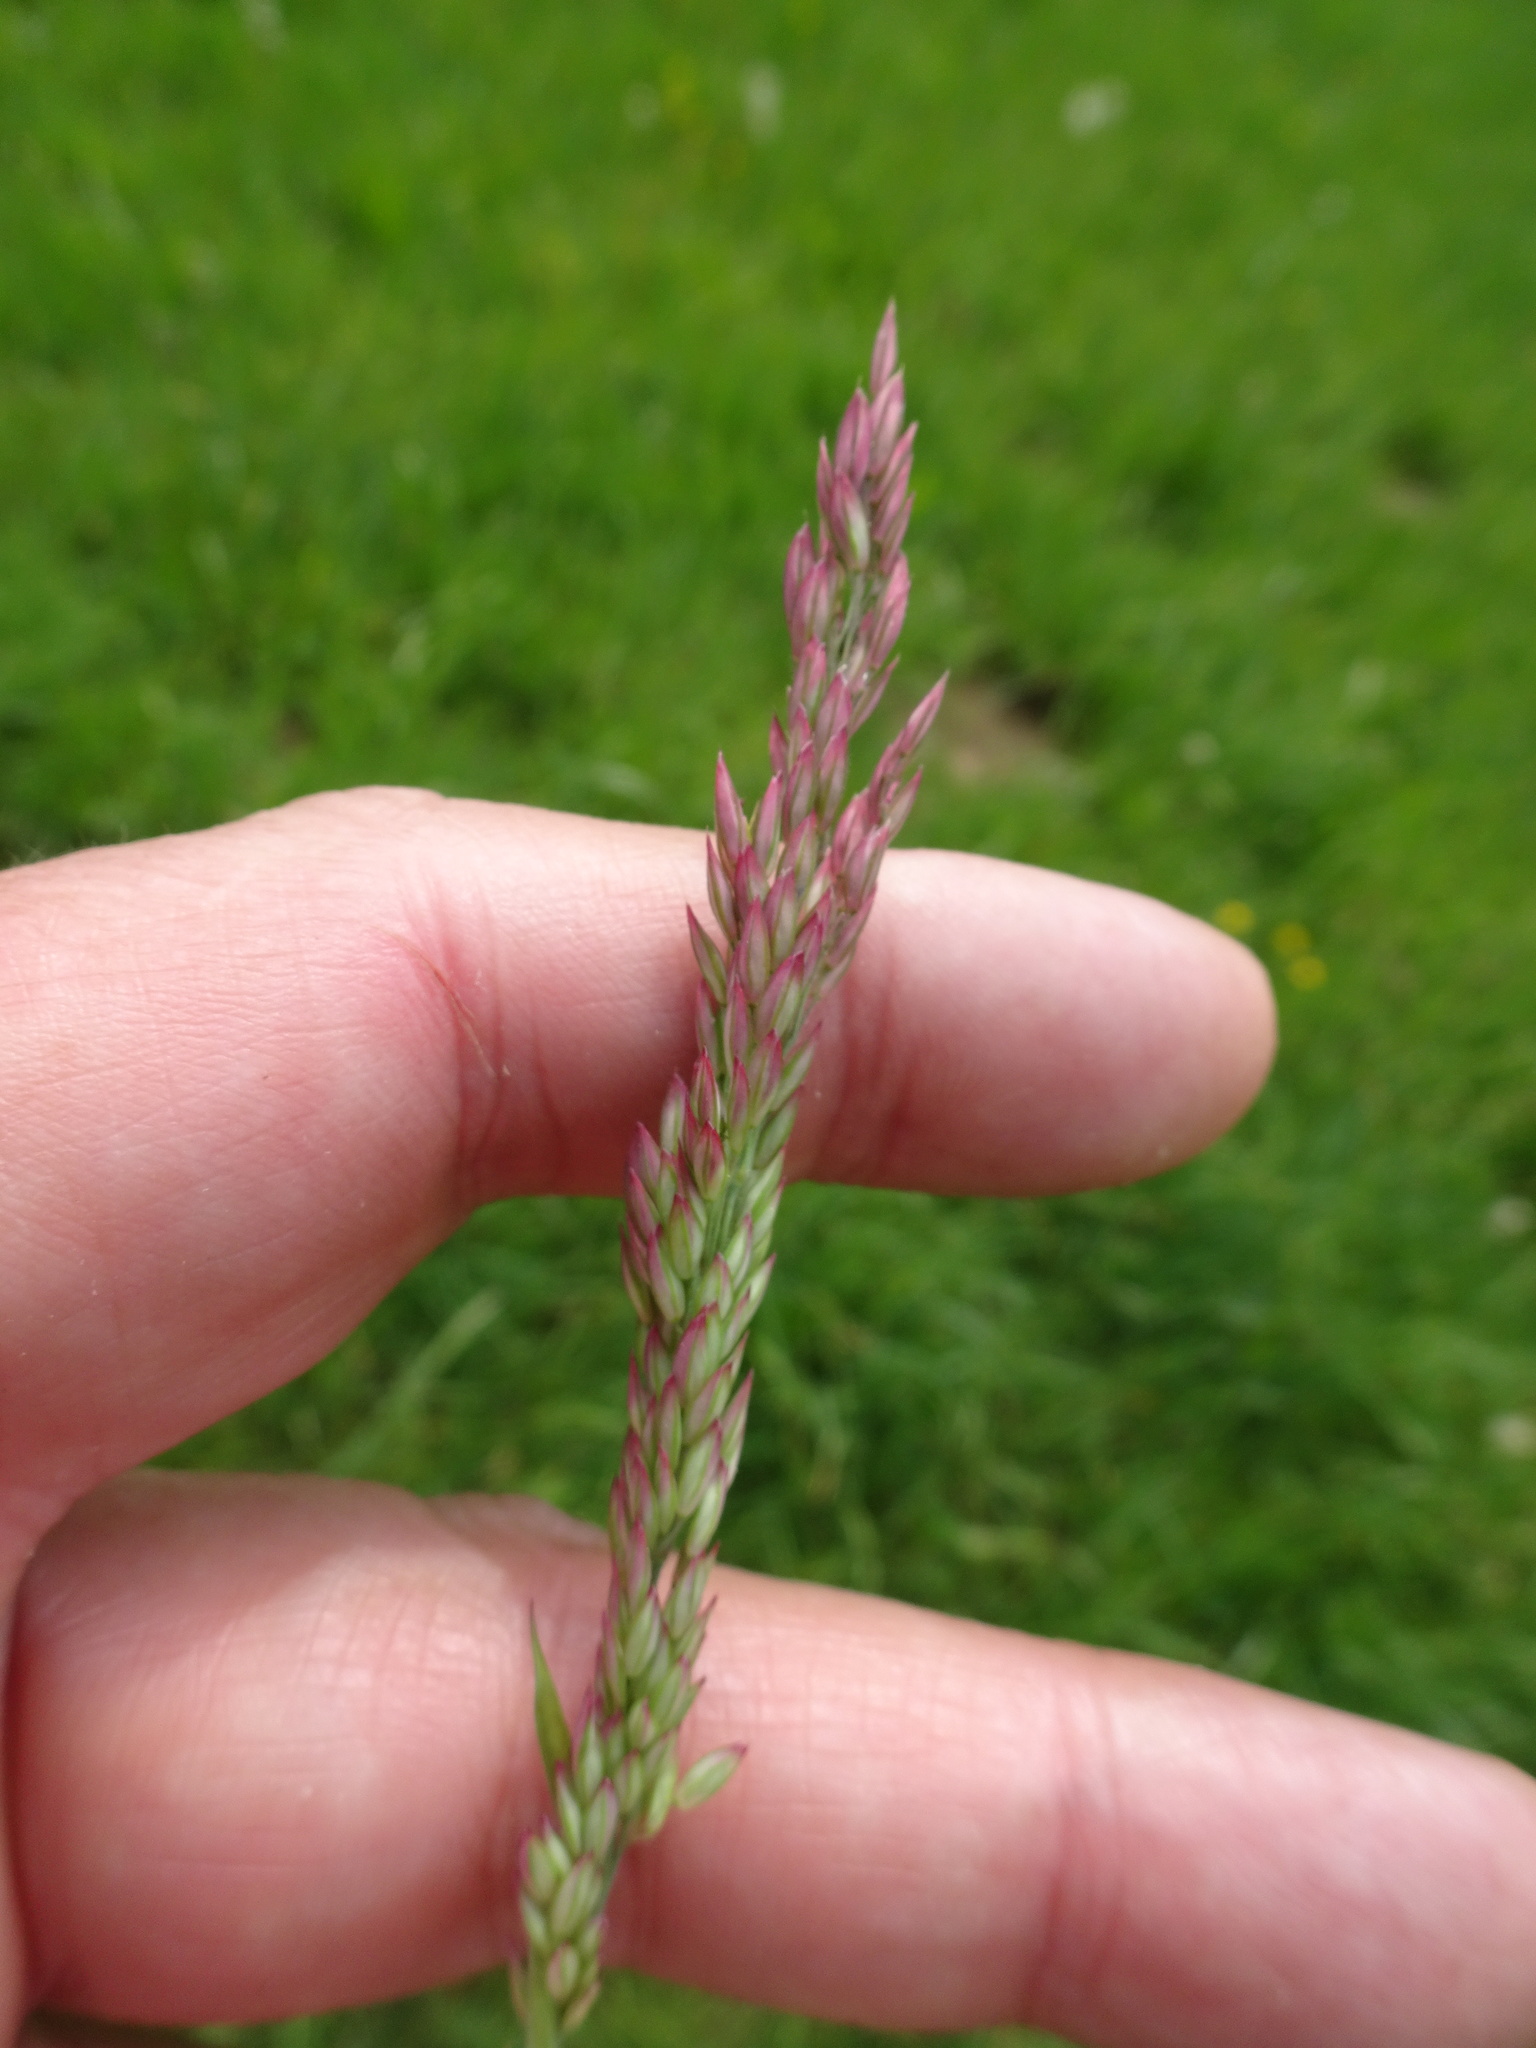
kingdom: Plantae
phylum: Tracheophyta
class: Liliopsida
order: Poales
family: Poaceae
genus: Holcus
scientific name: Holcus lanatus
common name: Yorkshire-fog
